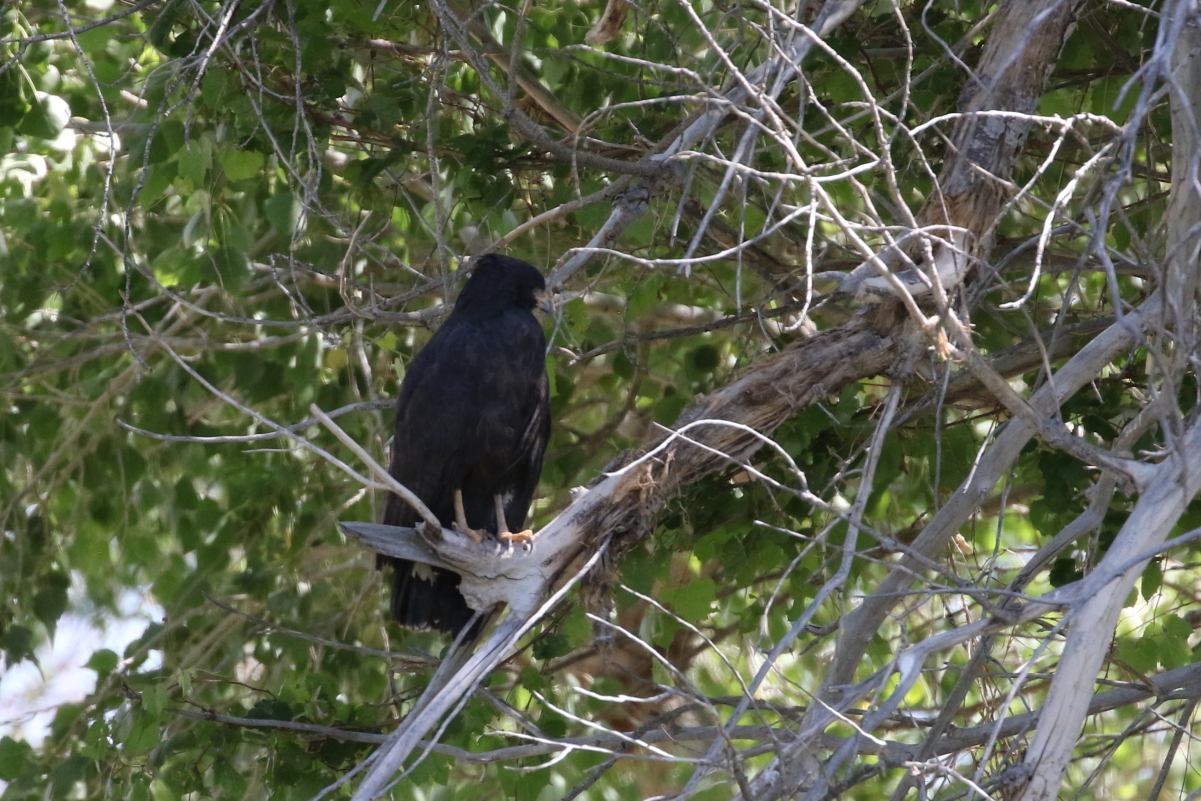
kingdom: Animalia
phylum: Chordata
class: Aves
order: Accipitriformes
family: Accipitridae
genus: Buteogallus
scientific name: Buteogallus anthracinus
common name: Common black hawk
